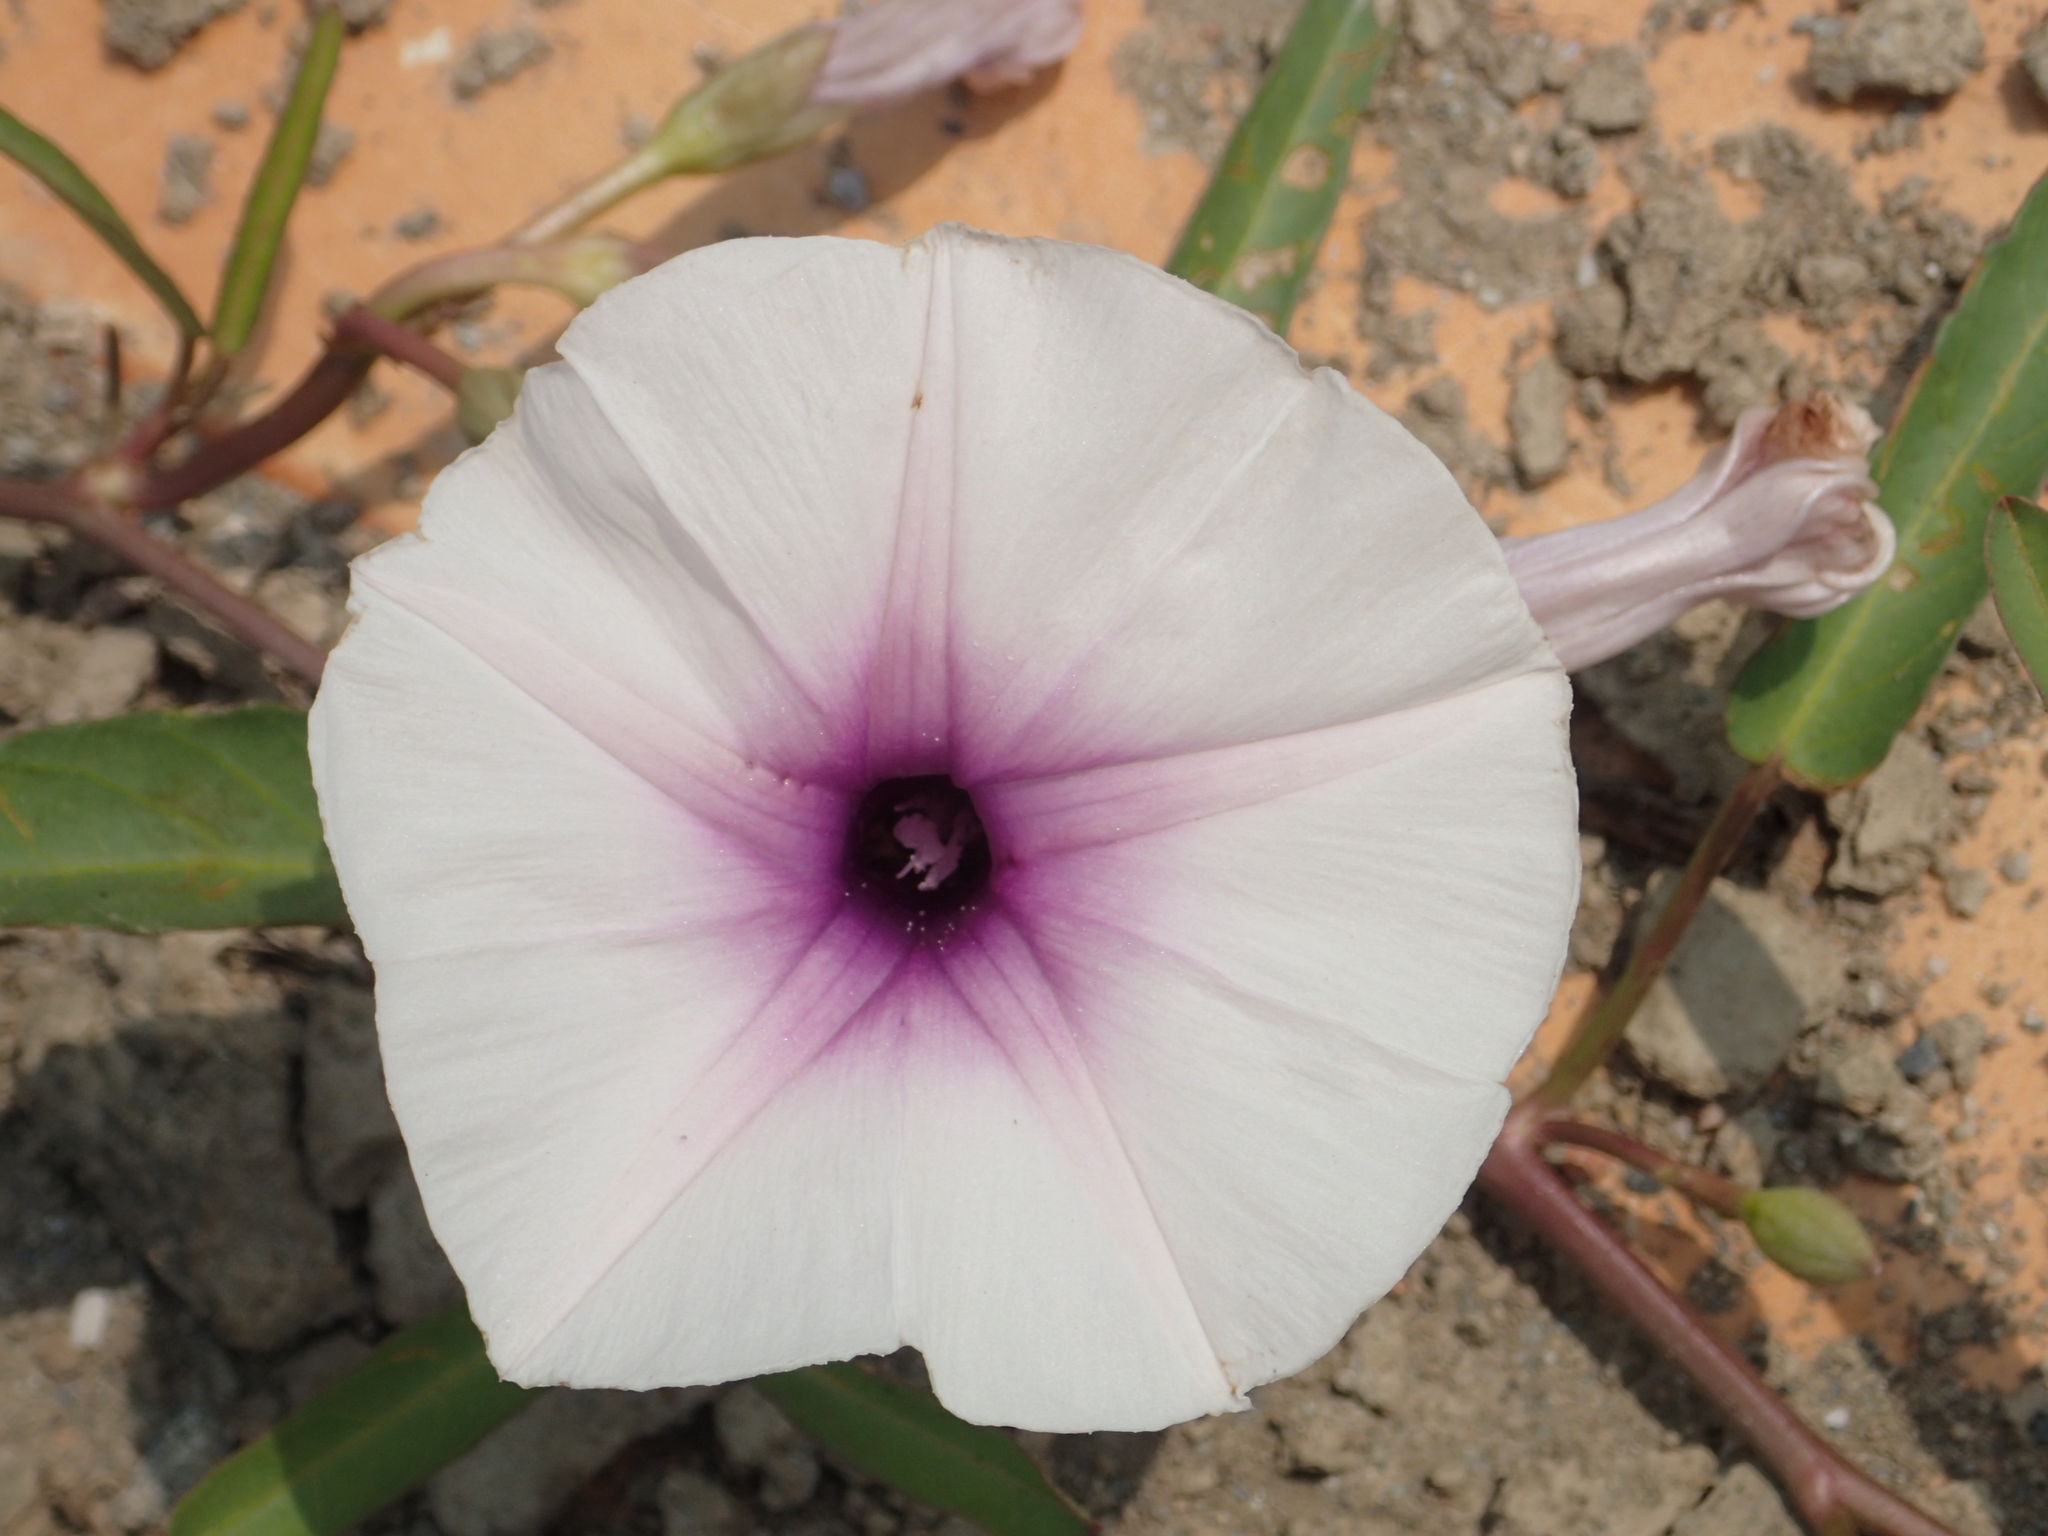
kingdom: Plantae
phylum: Tracheophyta
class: Magnoliopsida
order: Solanales
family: Convolvulaceae
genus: Ipomoea
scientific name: Ipomoea aquatica
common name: Swamp morning-glory
